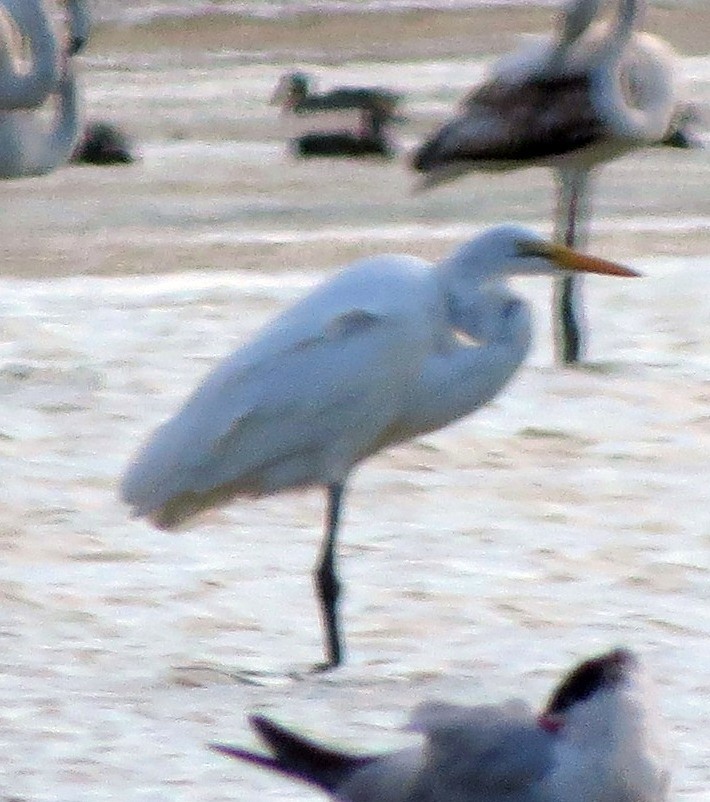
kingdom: Animalia
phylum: Chordata
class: Aves
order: Pelecaniformes
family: Ardeidae
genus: Ardea
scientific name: Ardea alba
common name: Great egret
